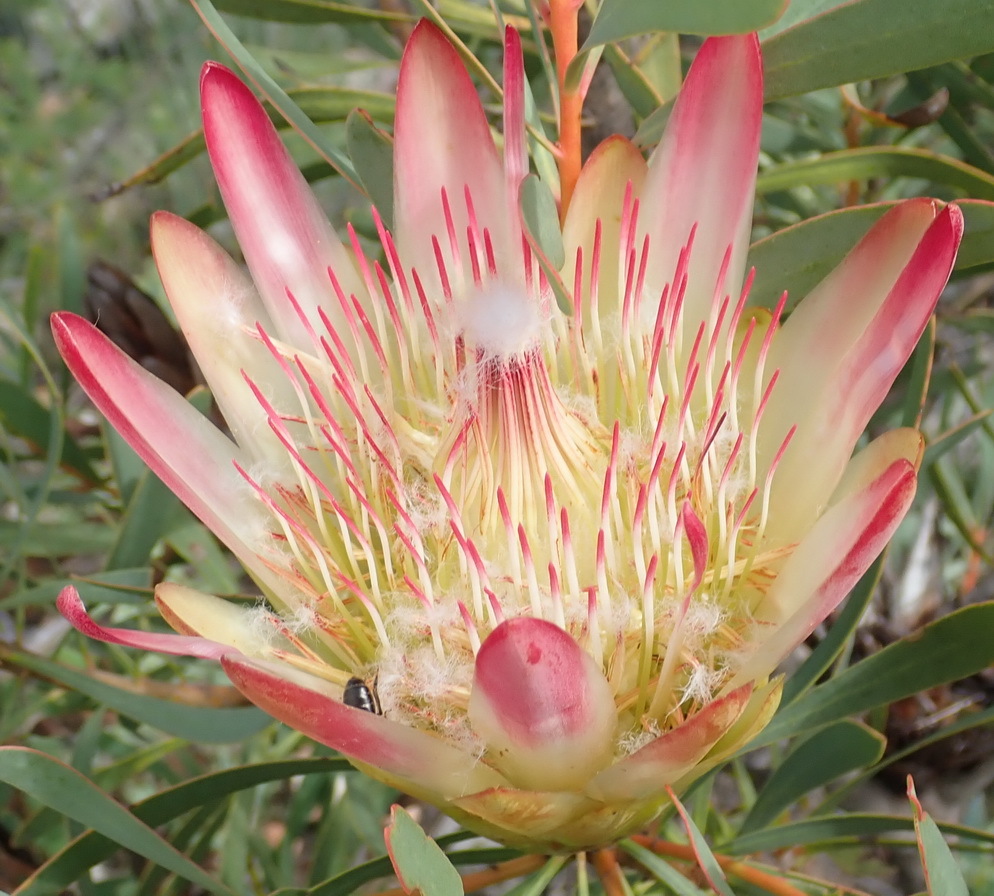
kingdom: Plantae
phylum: Tracheophyta
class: Magnoliopsida
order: Proteales
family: Proteaceae
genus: Protea
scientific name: Protea repens
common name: Sugarbush
